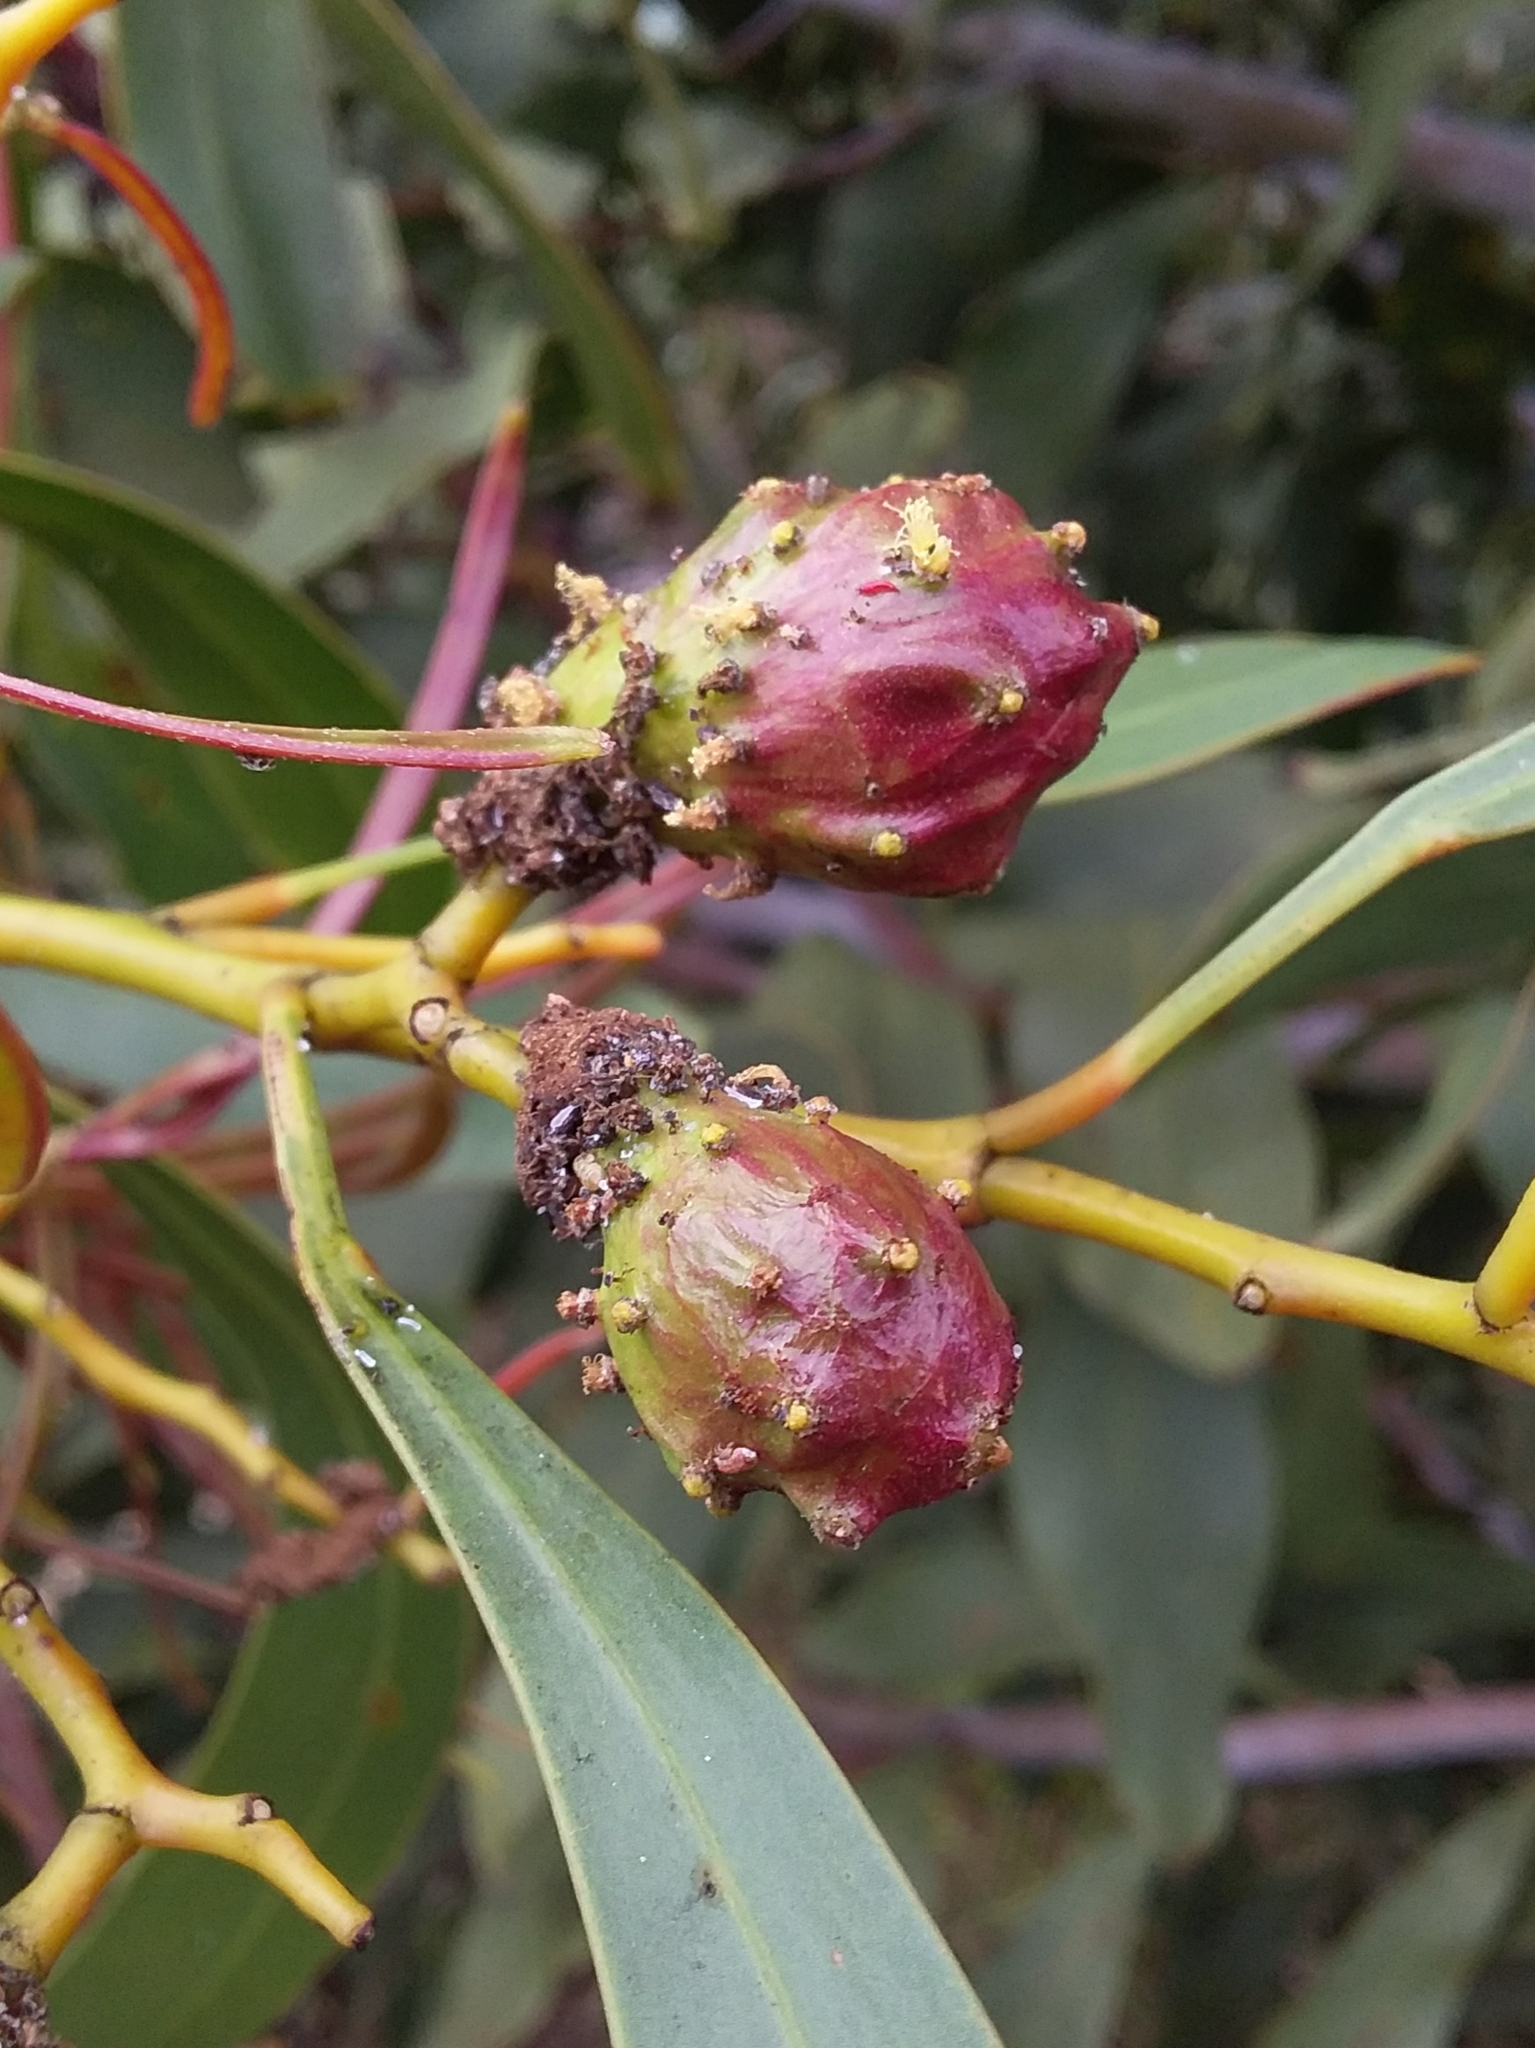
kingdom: Animalia
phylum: Arthropoda
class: Insecta
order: Hymenoptera
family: Pteromalidae
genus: Trichilogaster
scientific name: Trichilogaster signiventris
